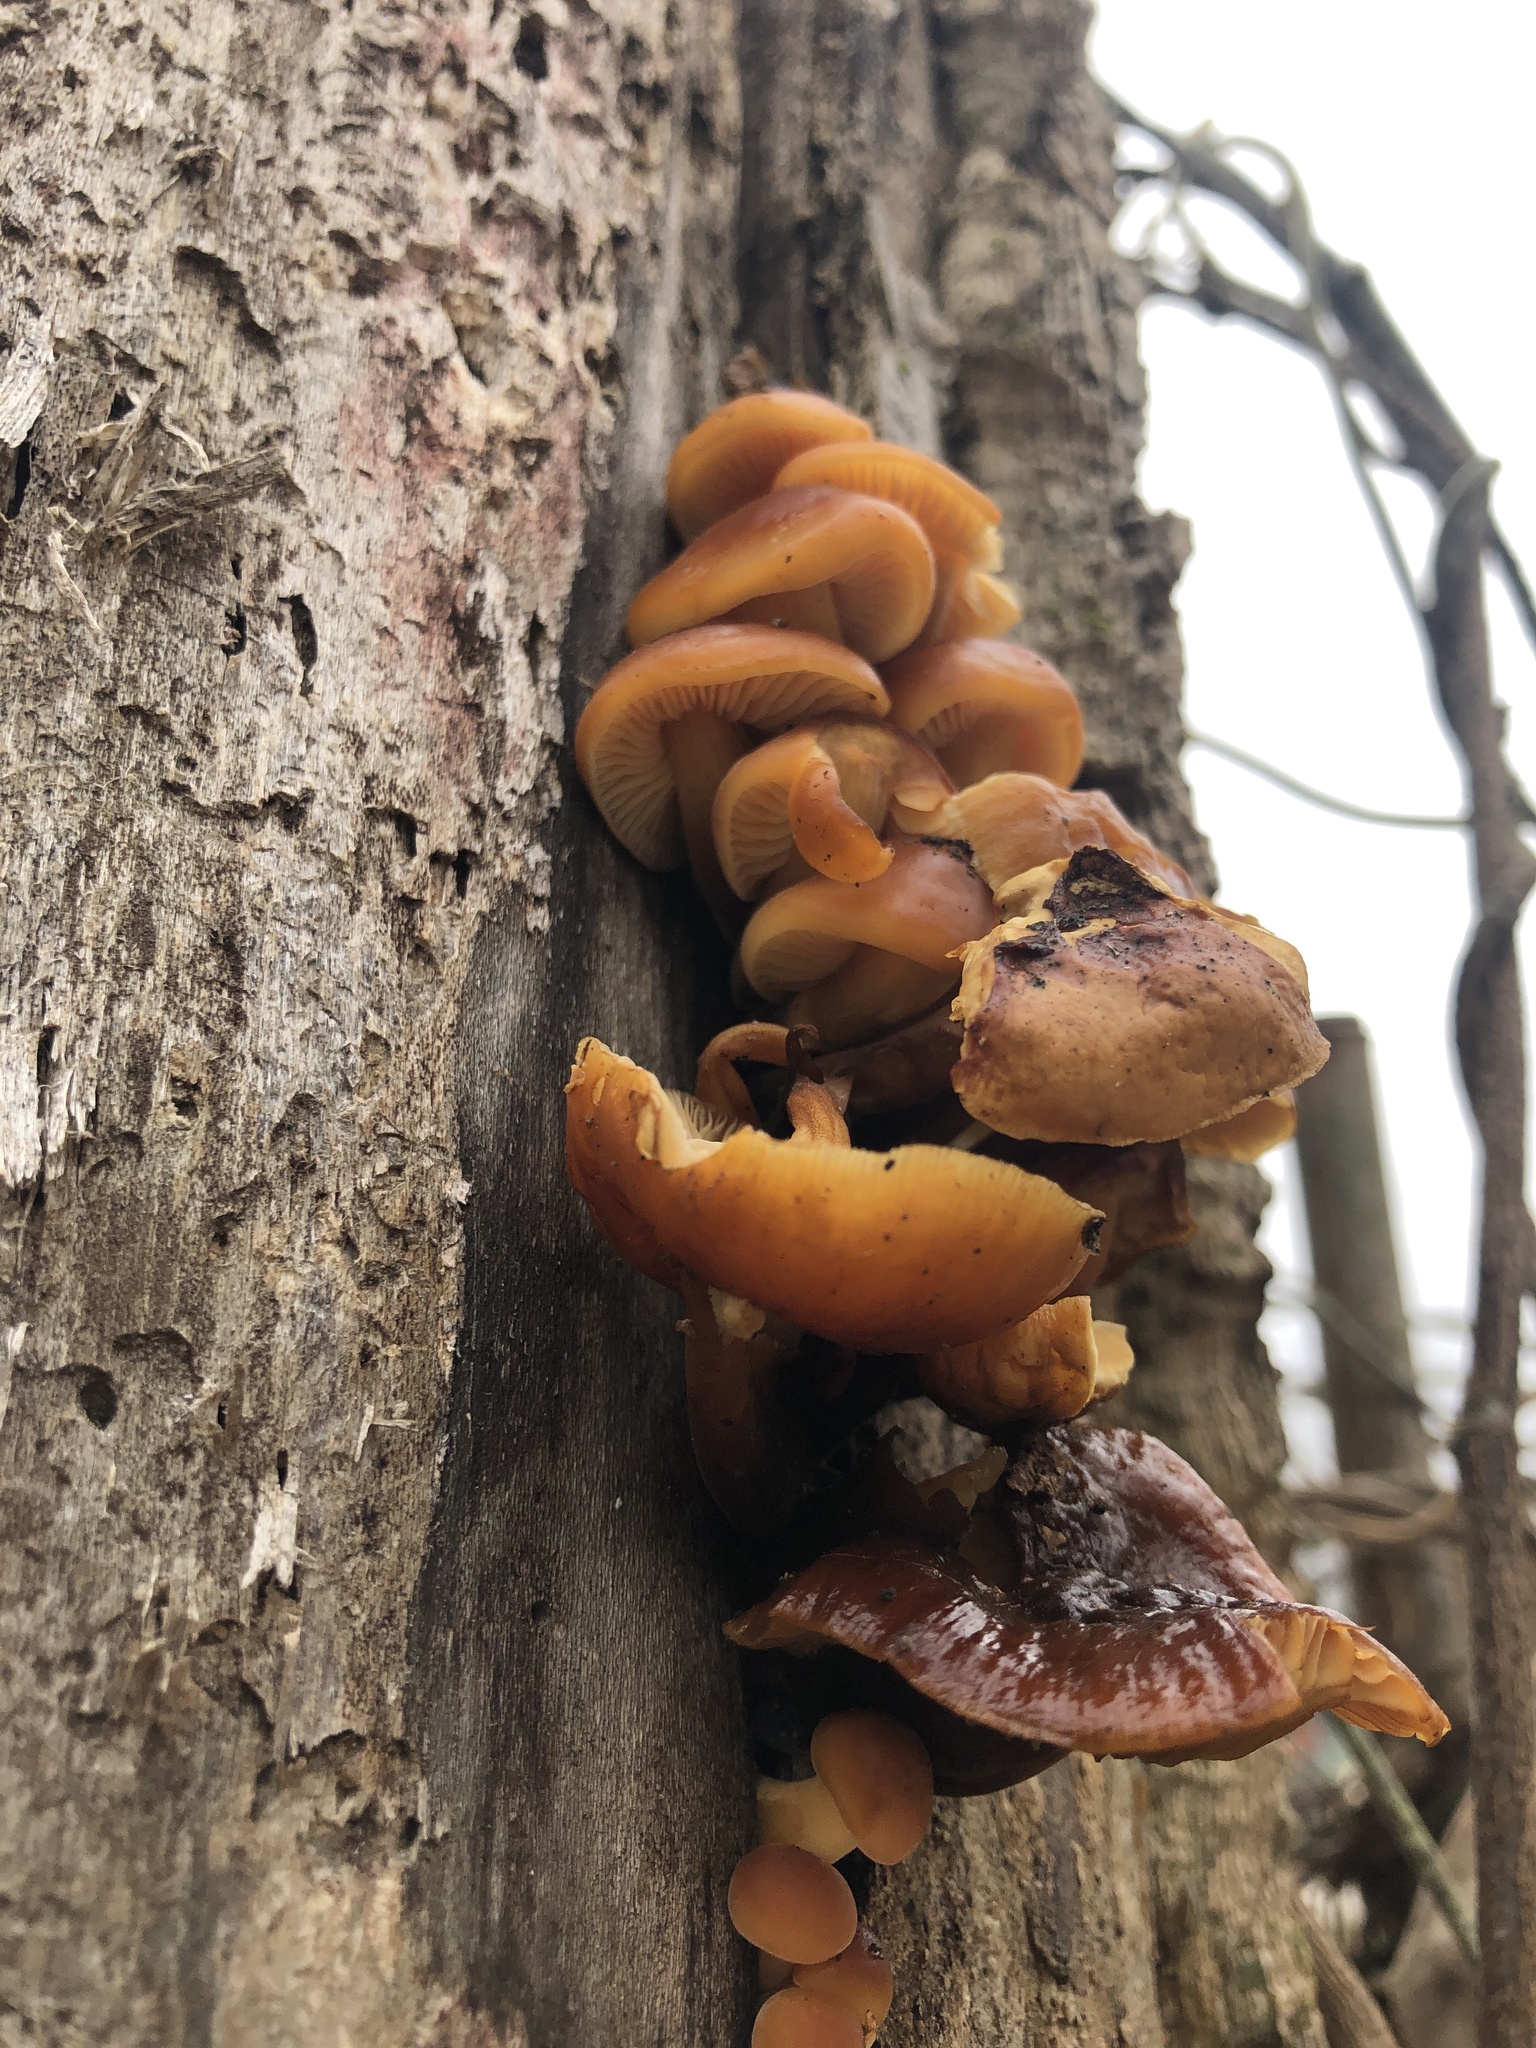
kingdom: Fungi
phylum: Basidiomycota
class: Agaricomycetes
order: Agaricales
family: Physalacriaceae
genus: Flammulina
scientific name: Flammulina velutipes
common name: Velvet shank
